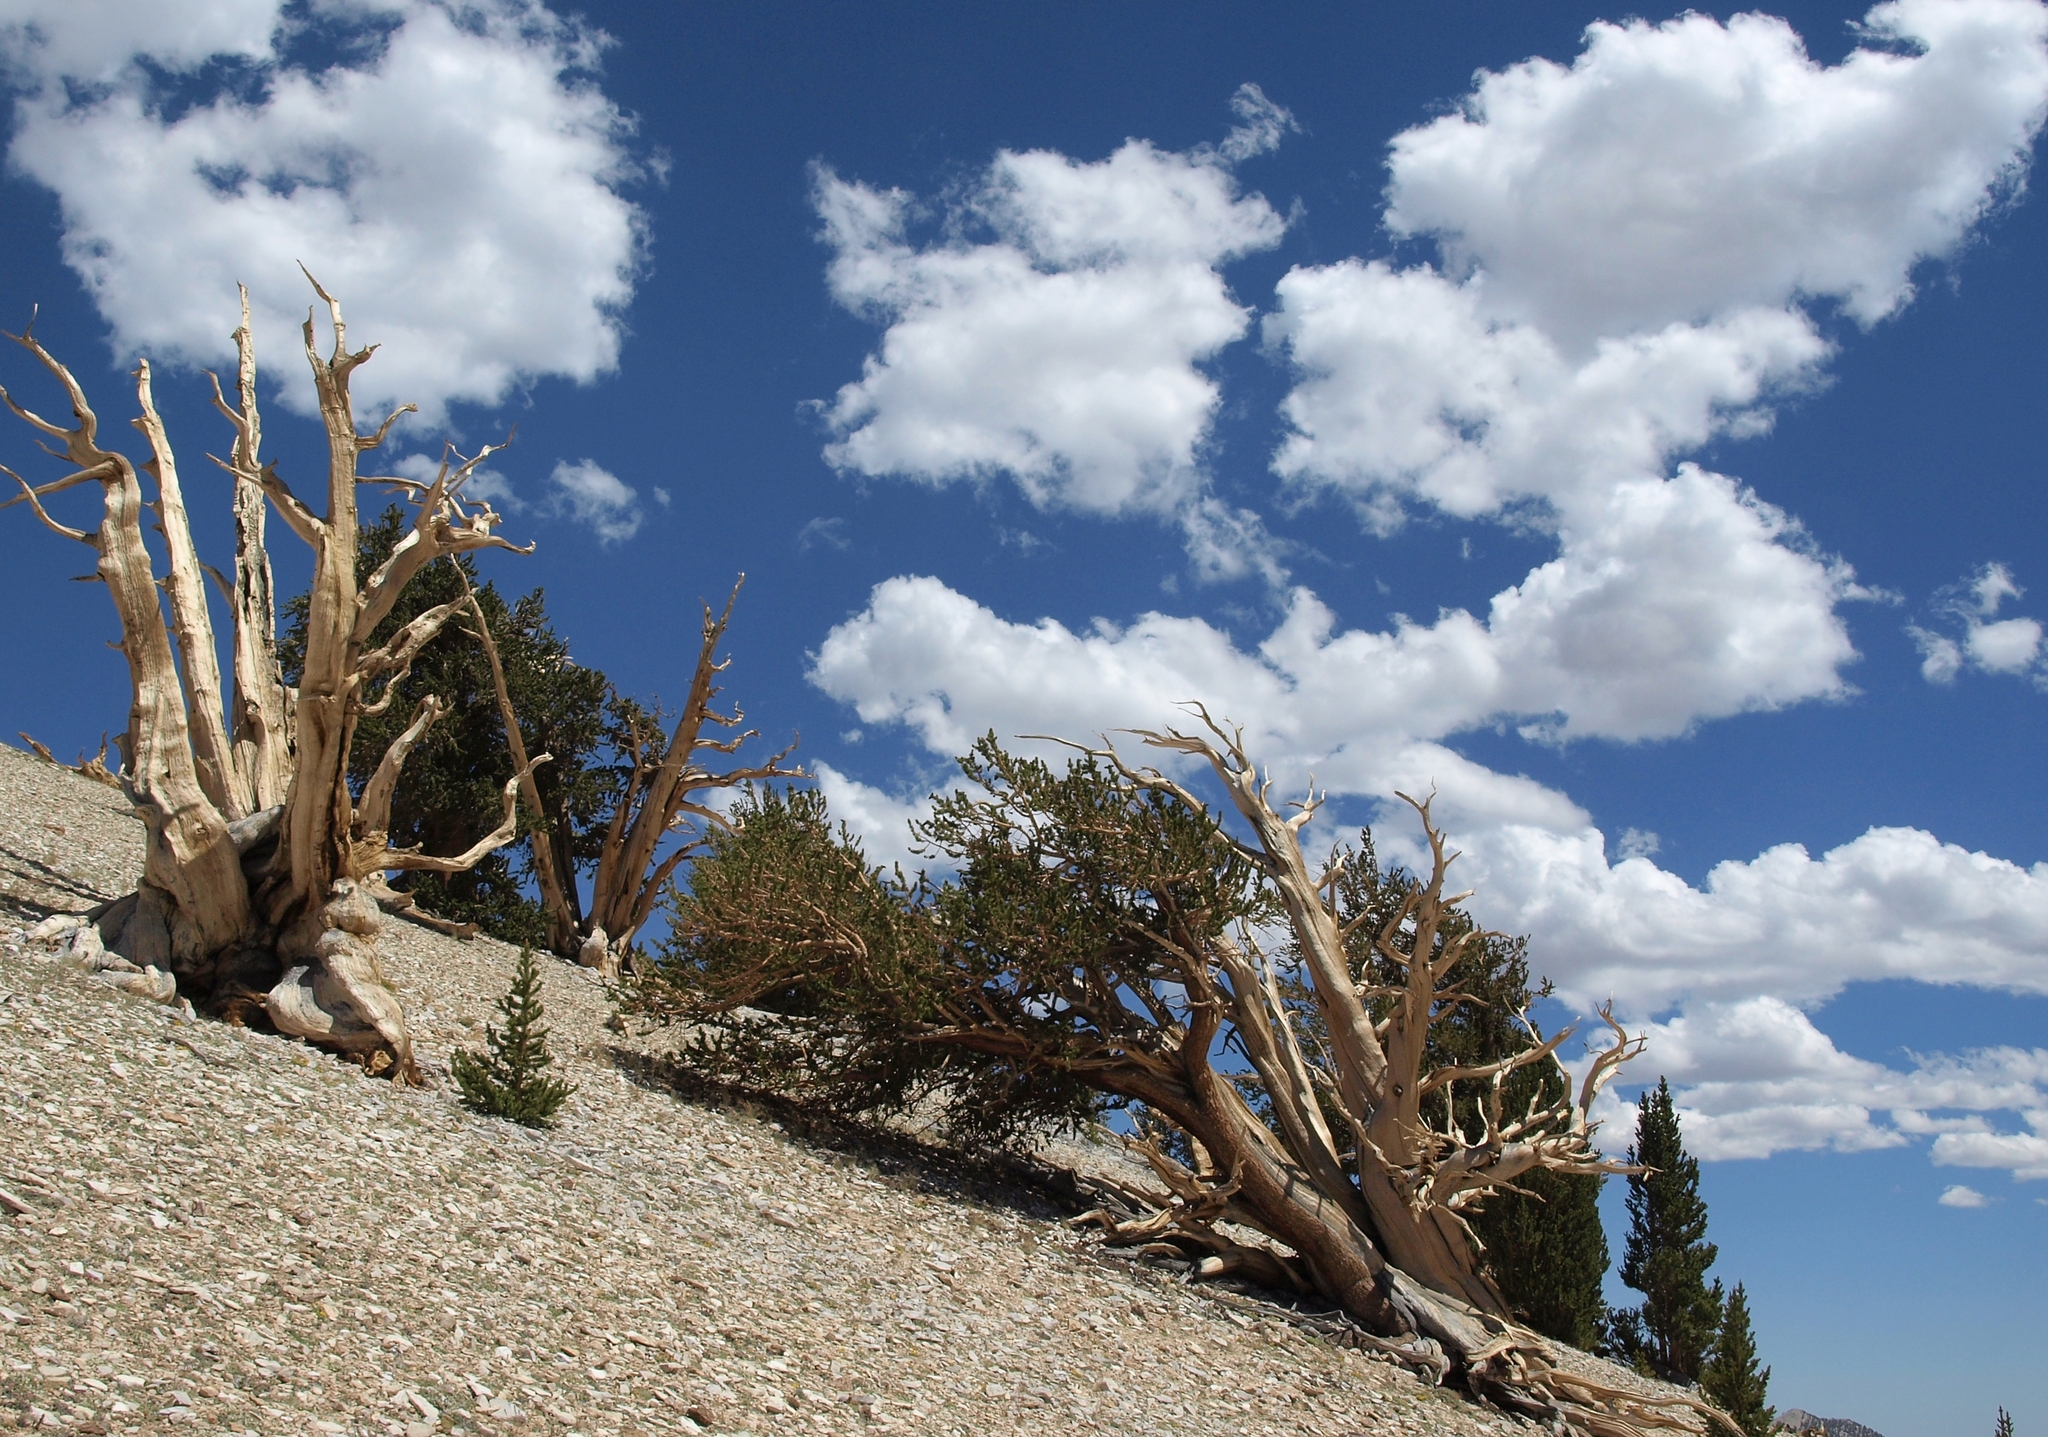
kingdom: Plantae
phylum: Tracheophyta
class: Pinopsida
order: Pinales
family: Pinaceae
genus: Pinus
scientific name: Pinus longaeva
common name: Intermountain bristlecone pine
